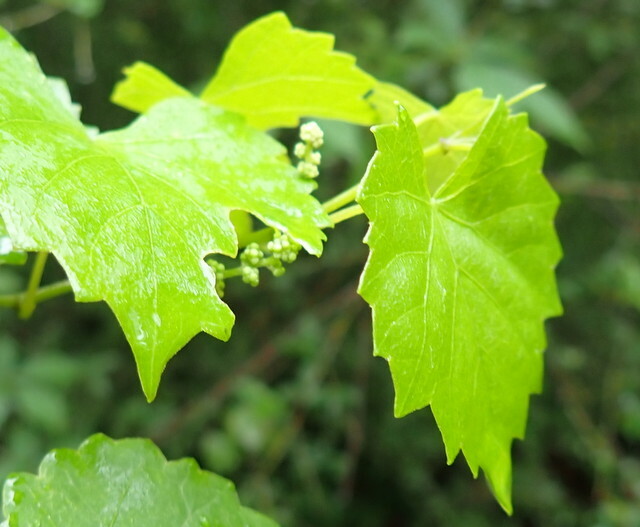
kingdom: Plantae
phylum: Tracheophyta
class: Magnoliopsida
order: Vitales
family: Vitaceae
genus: Vitis
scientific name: Vitis rotundifolia
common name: Muscadine grape
